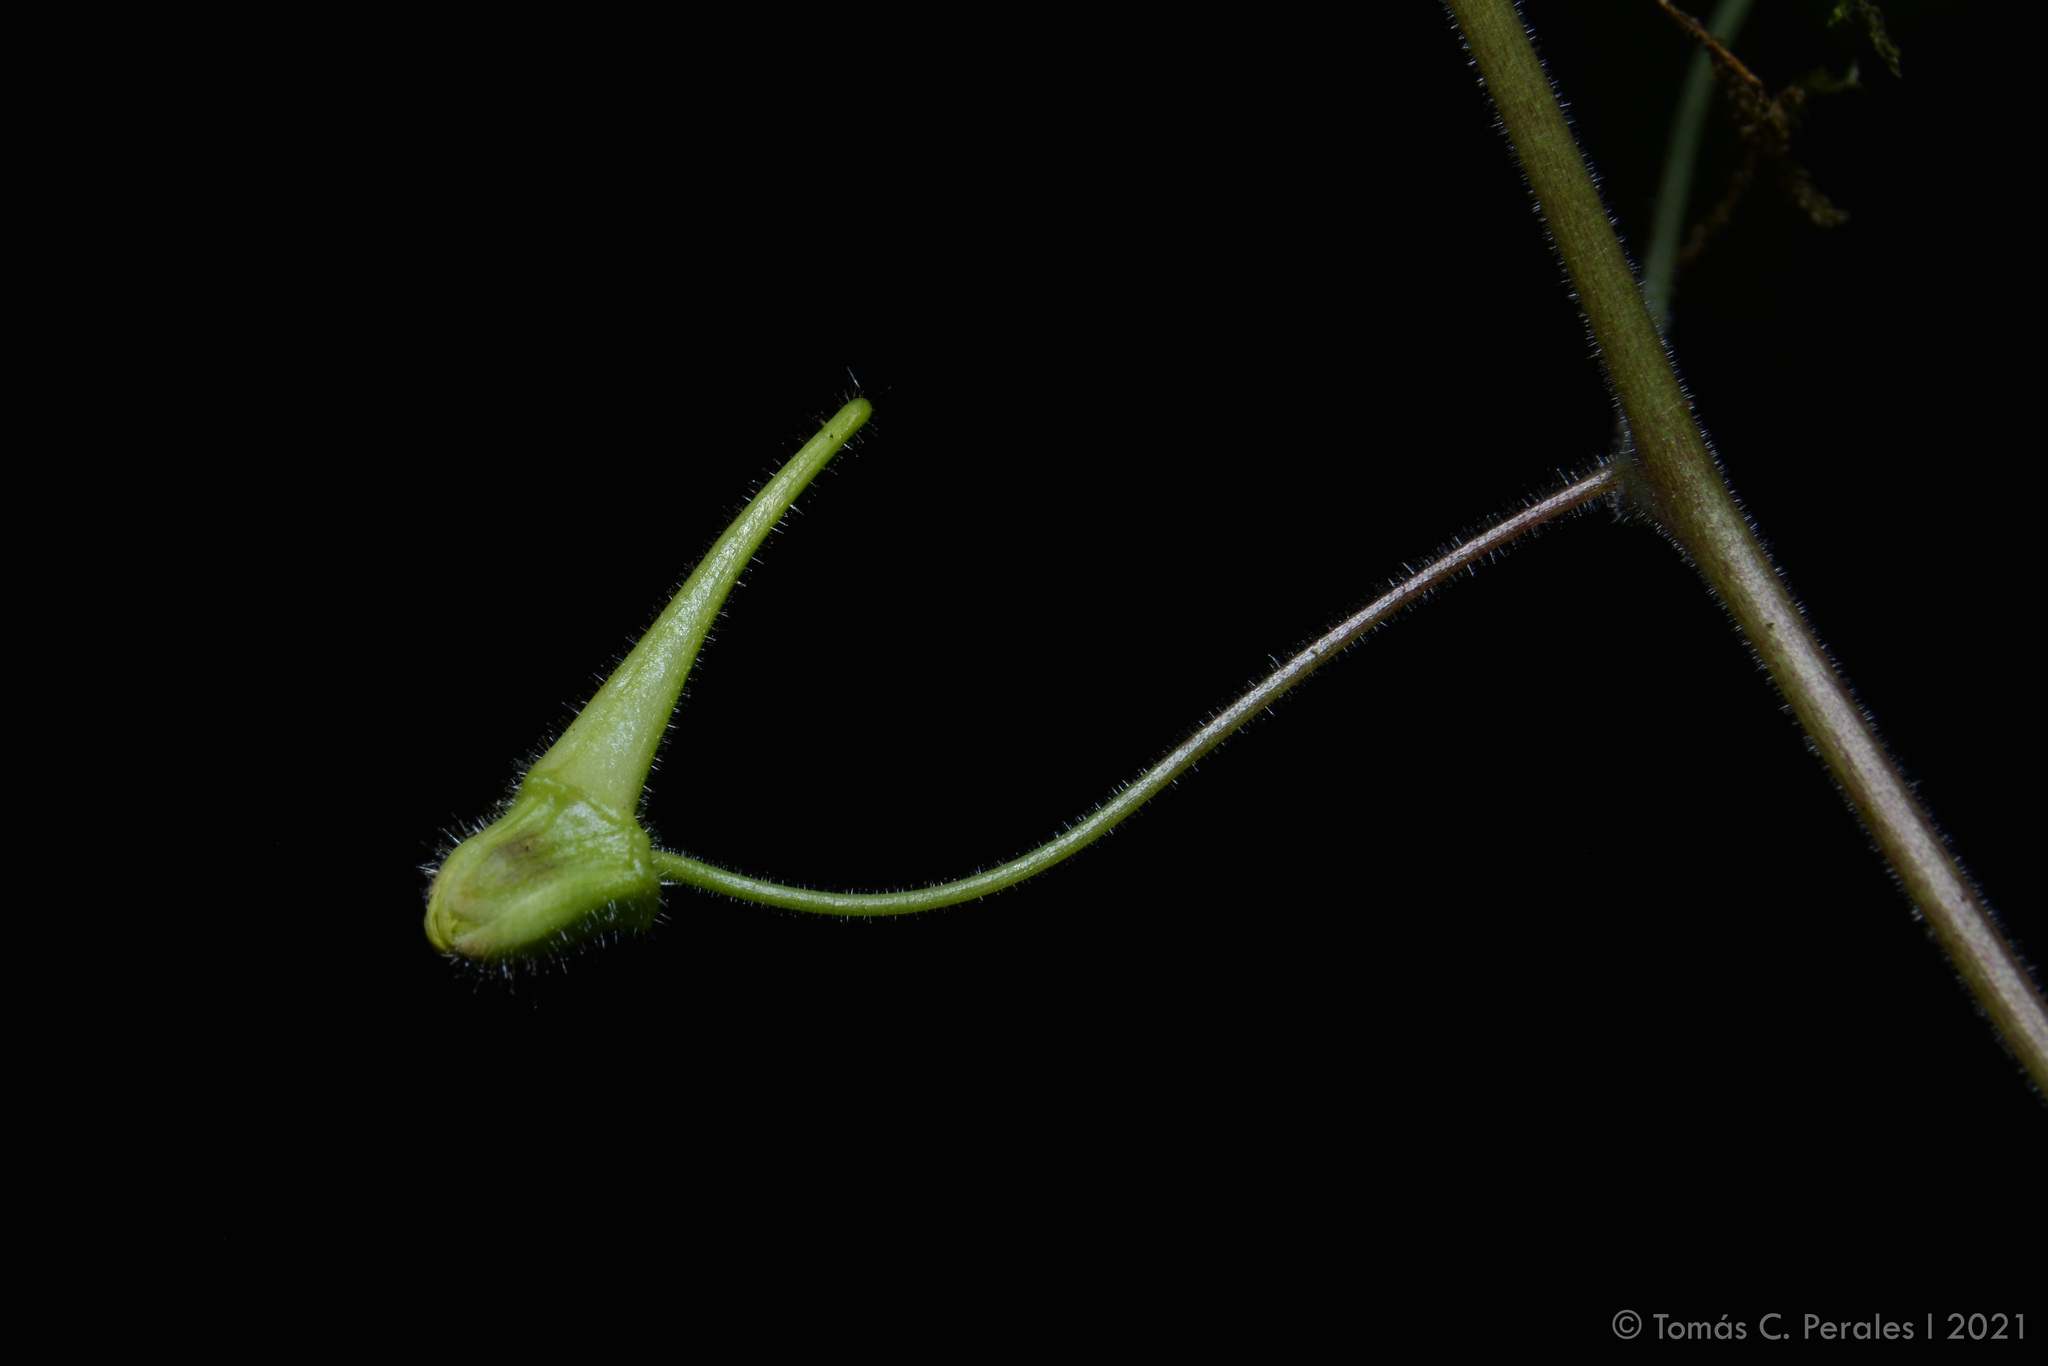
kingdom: Plantae
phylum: Tracheophyta
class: Magnoliopsida
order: Brassicales
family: Tropaeolaceae
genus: Tropaeolum
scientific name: Tropaeolum warmingianum
